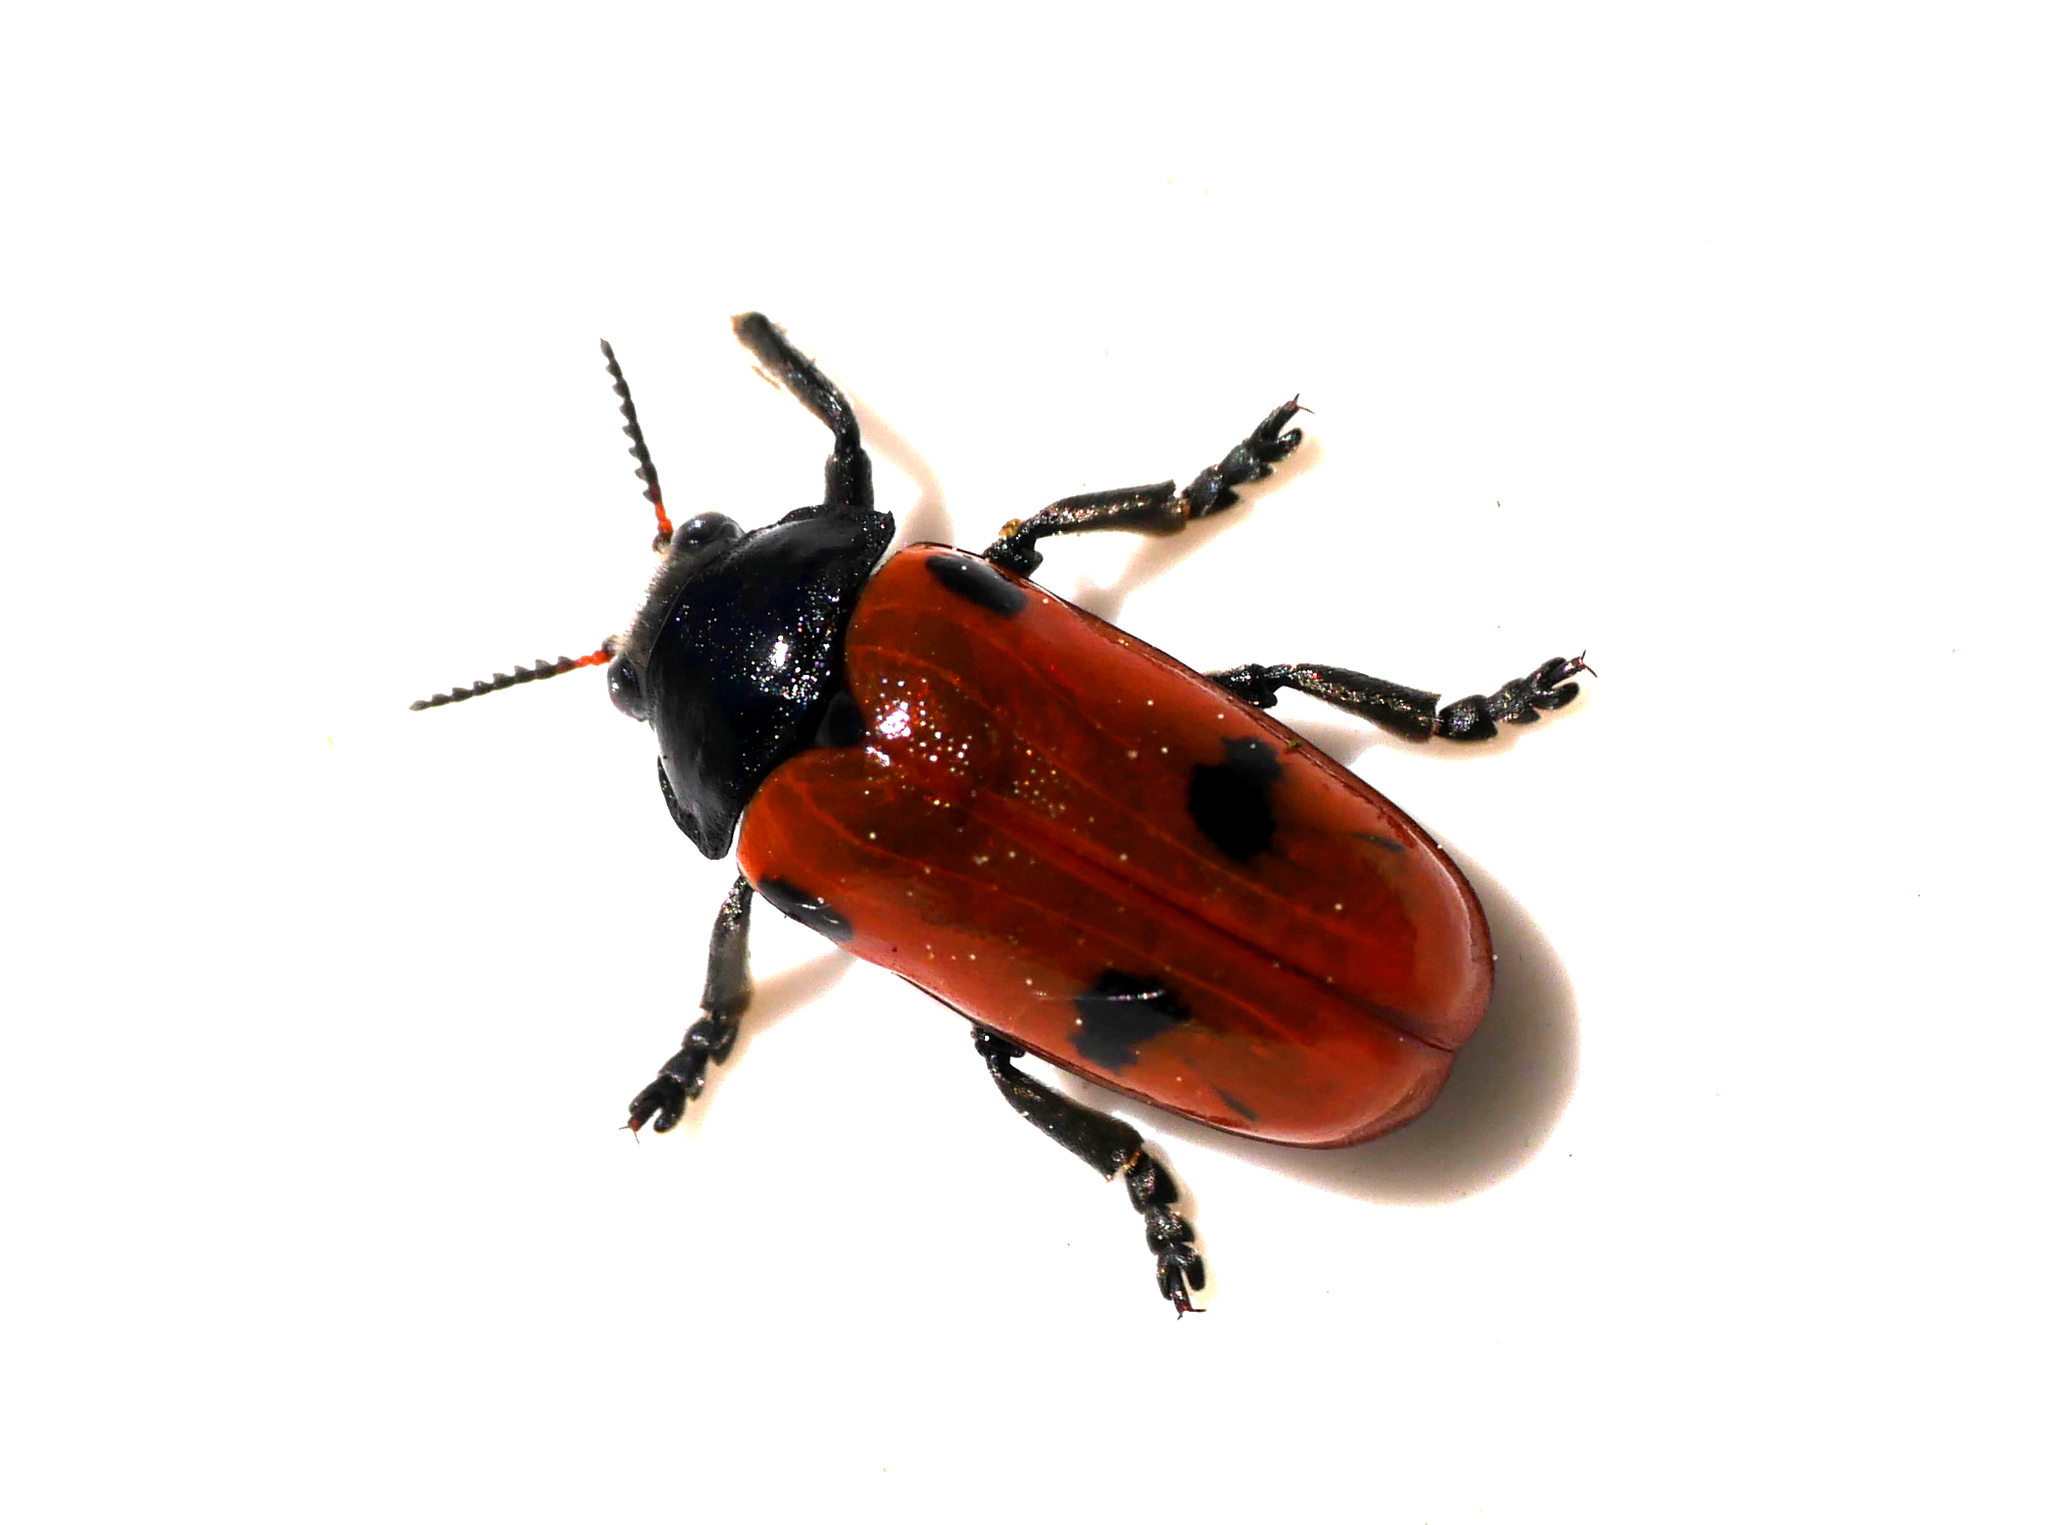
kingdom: Animalia
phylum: Arthropoda
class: Insecta
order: Coleoptera
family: Chrysomelidae
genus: Clytra
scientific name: Clytra quadripunctata
